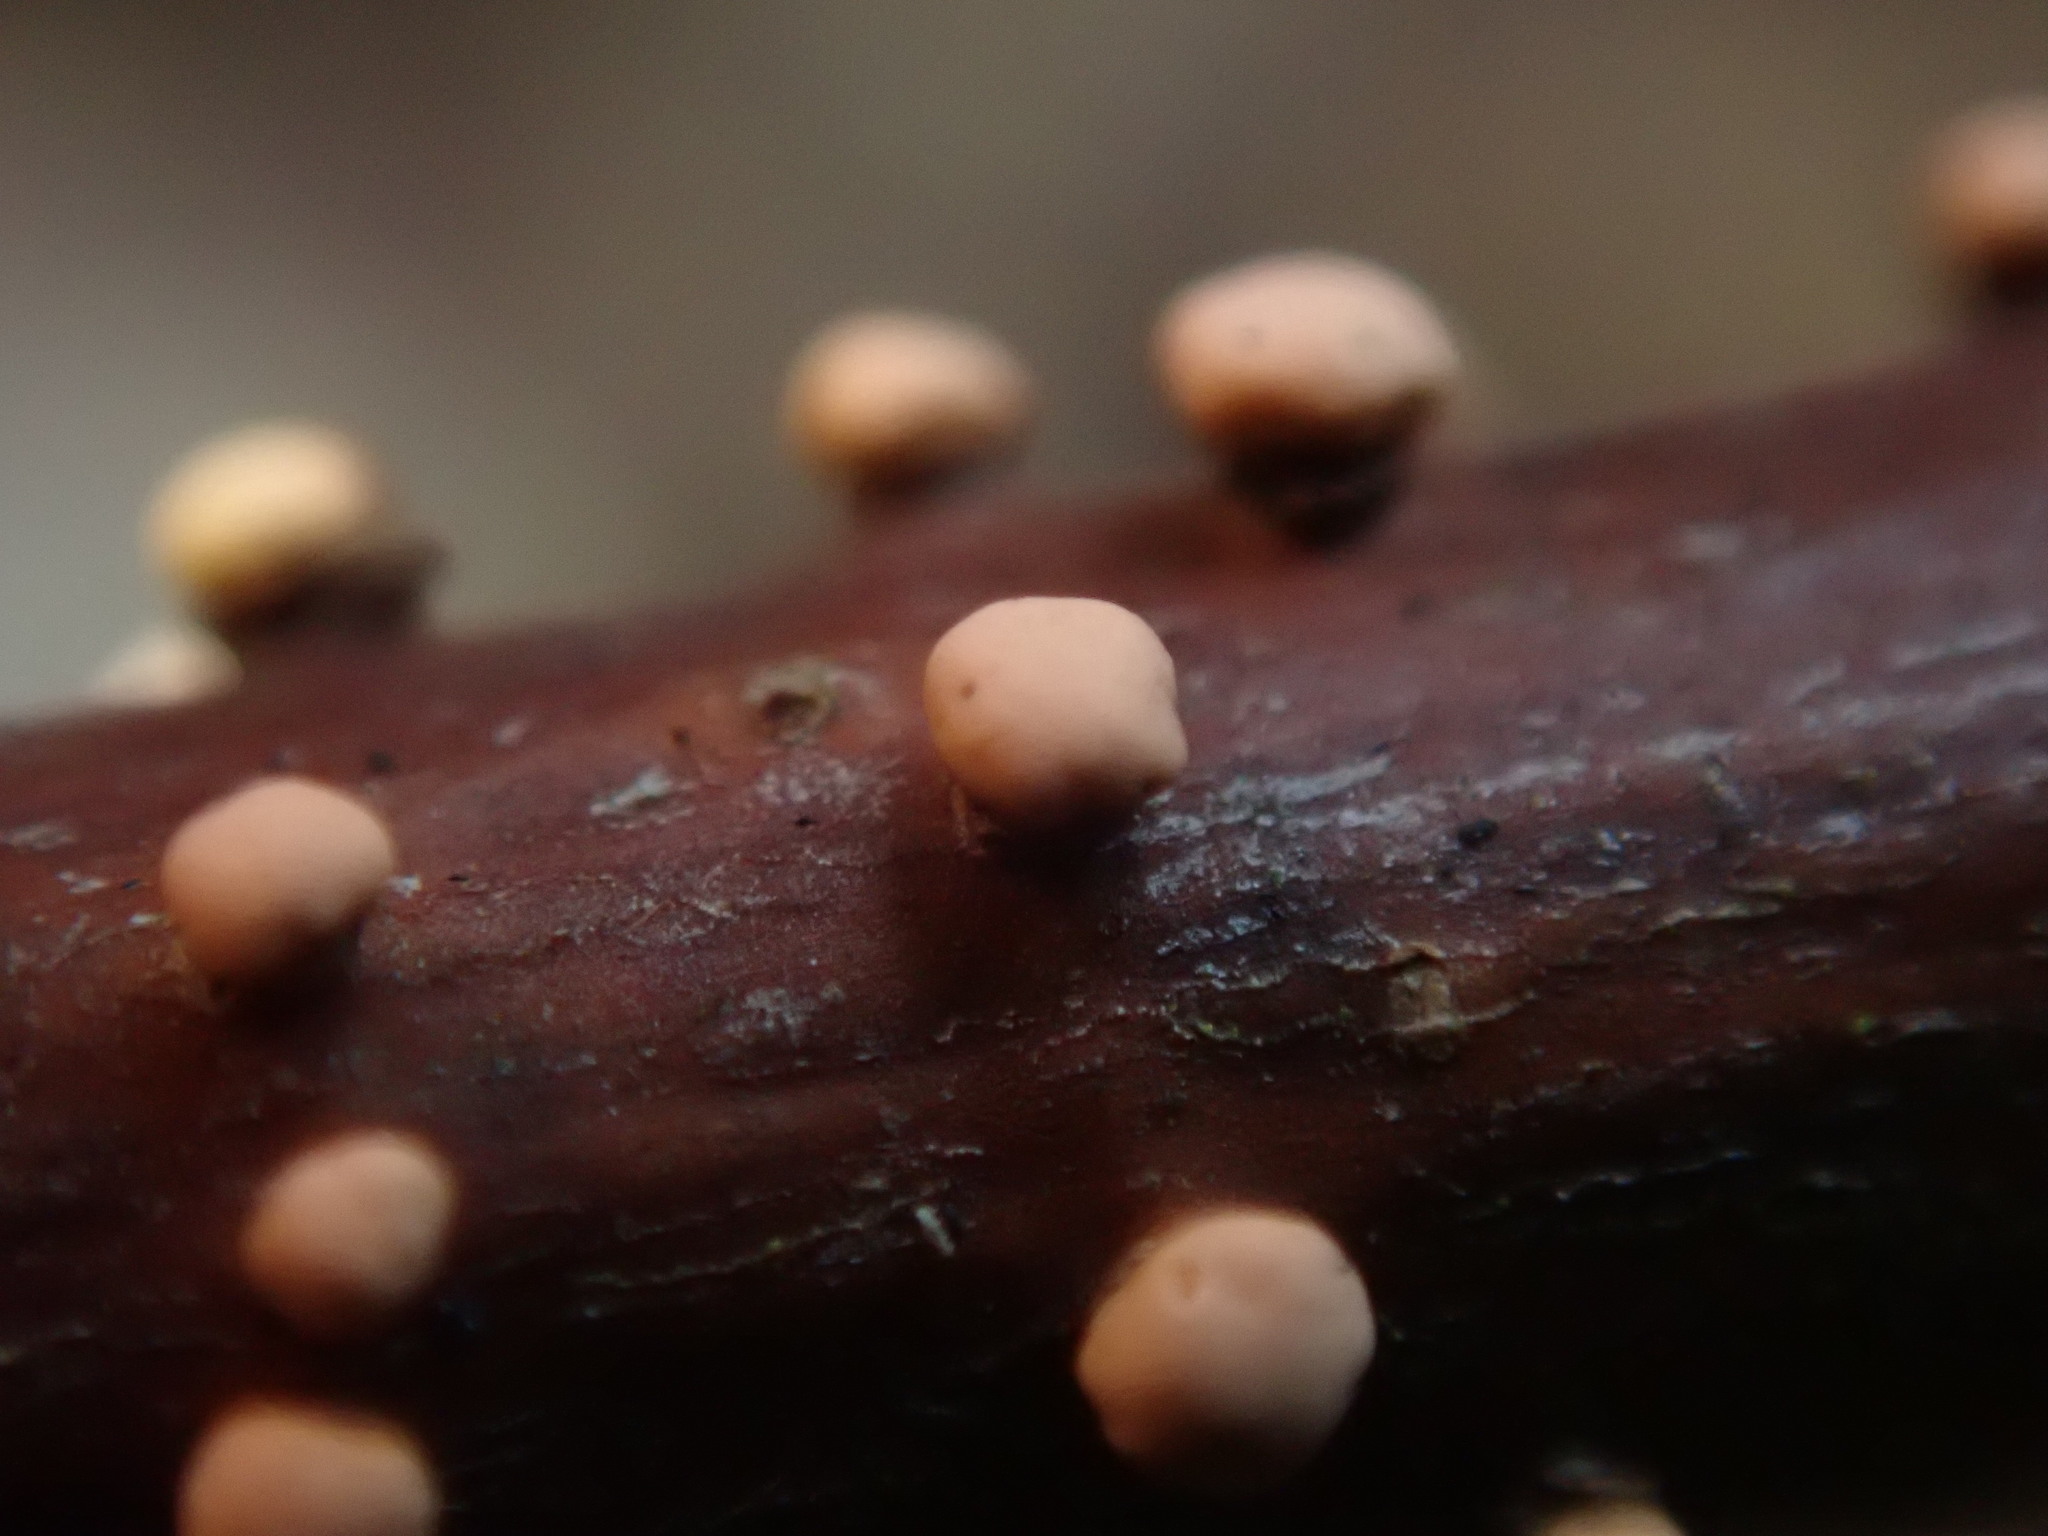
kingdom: Fungi
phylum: Ascomycota
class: Sordariomycetes
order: Hypocreales
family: Nectriaceae
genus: Nectria
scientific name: Nectria cinnabarina
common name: Coral spot
